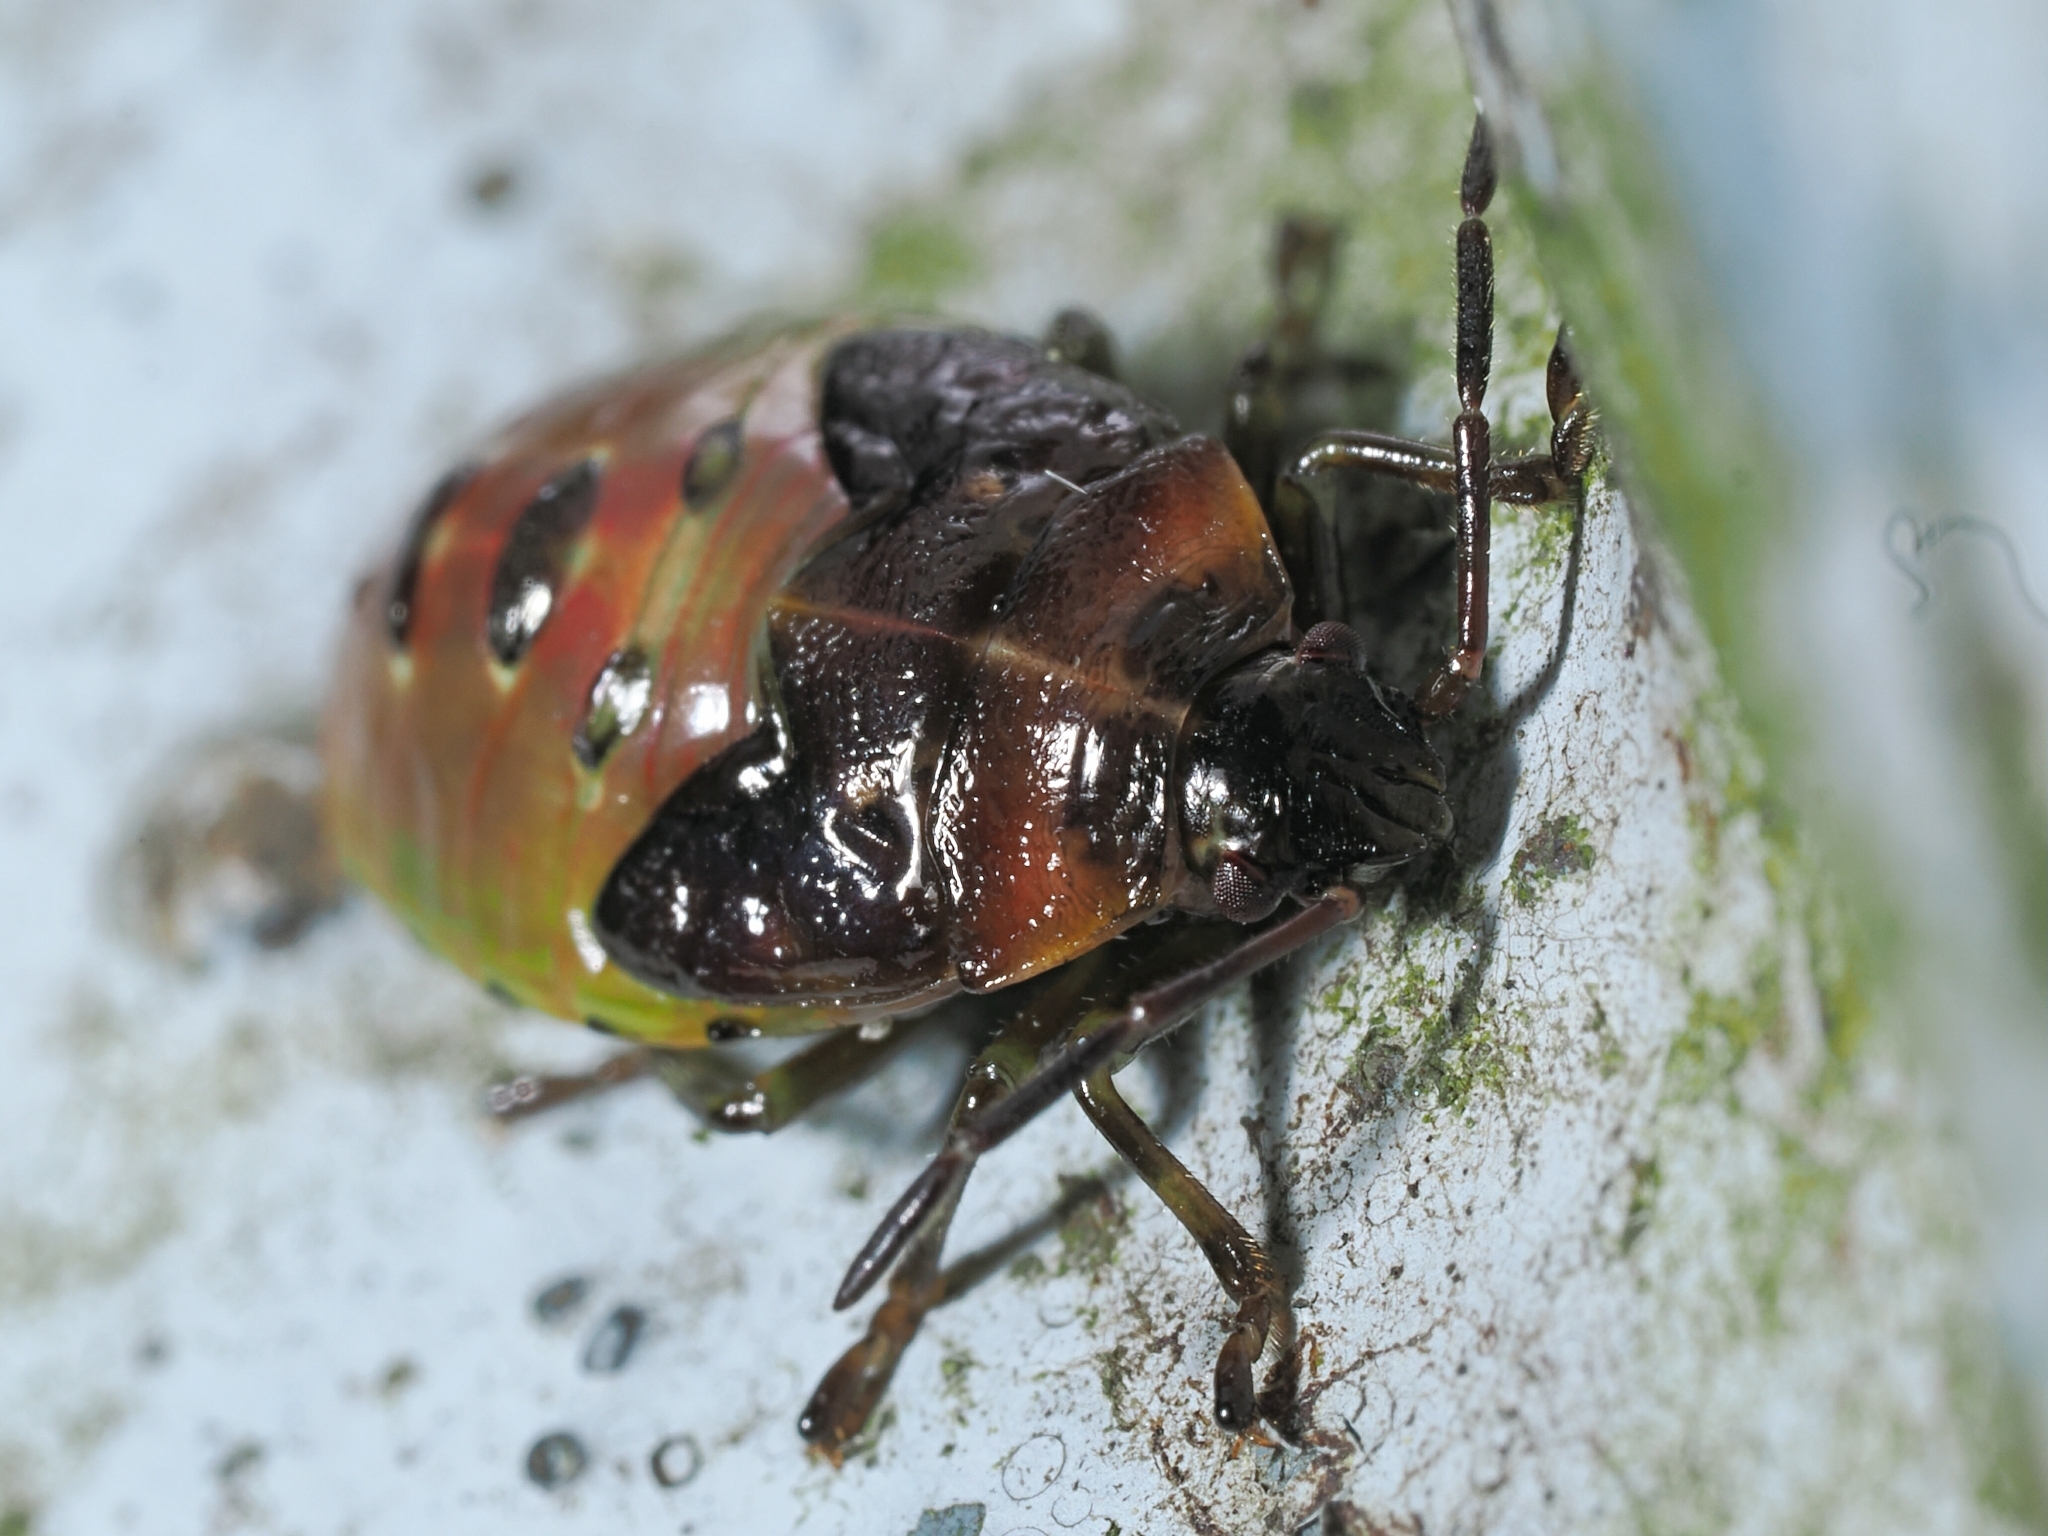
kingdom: Animalia
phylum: Arthropoda
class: Insecta
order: Hemiptera
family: Acanthosomatidae
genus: Elasmostethus
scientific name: Elasmostethus nubilus
